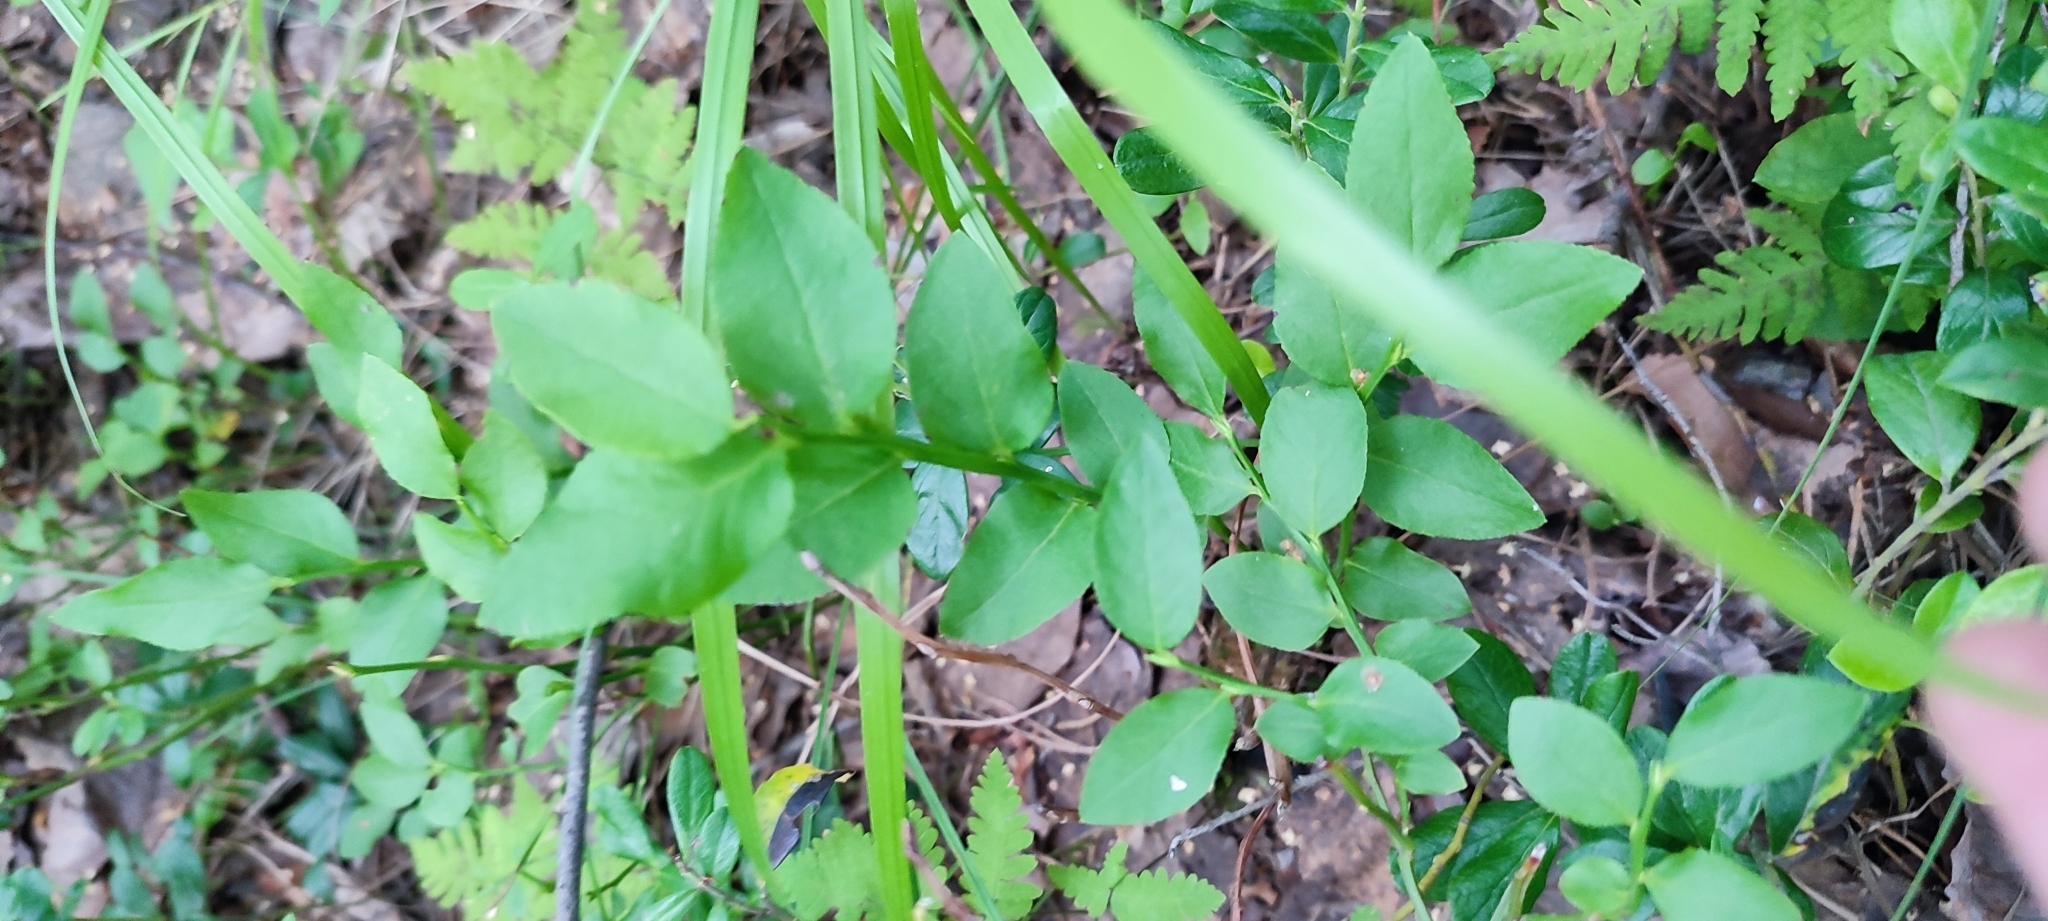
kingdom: Plantae
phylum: Tracheophyta
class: Magnoliopsida
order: Ericales
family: Ericaceae
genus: Vaccinium
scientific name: Vaccinium myrtillus
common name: Bilberry
